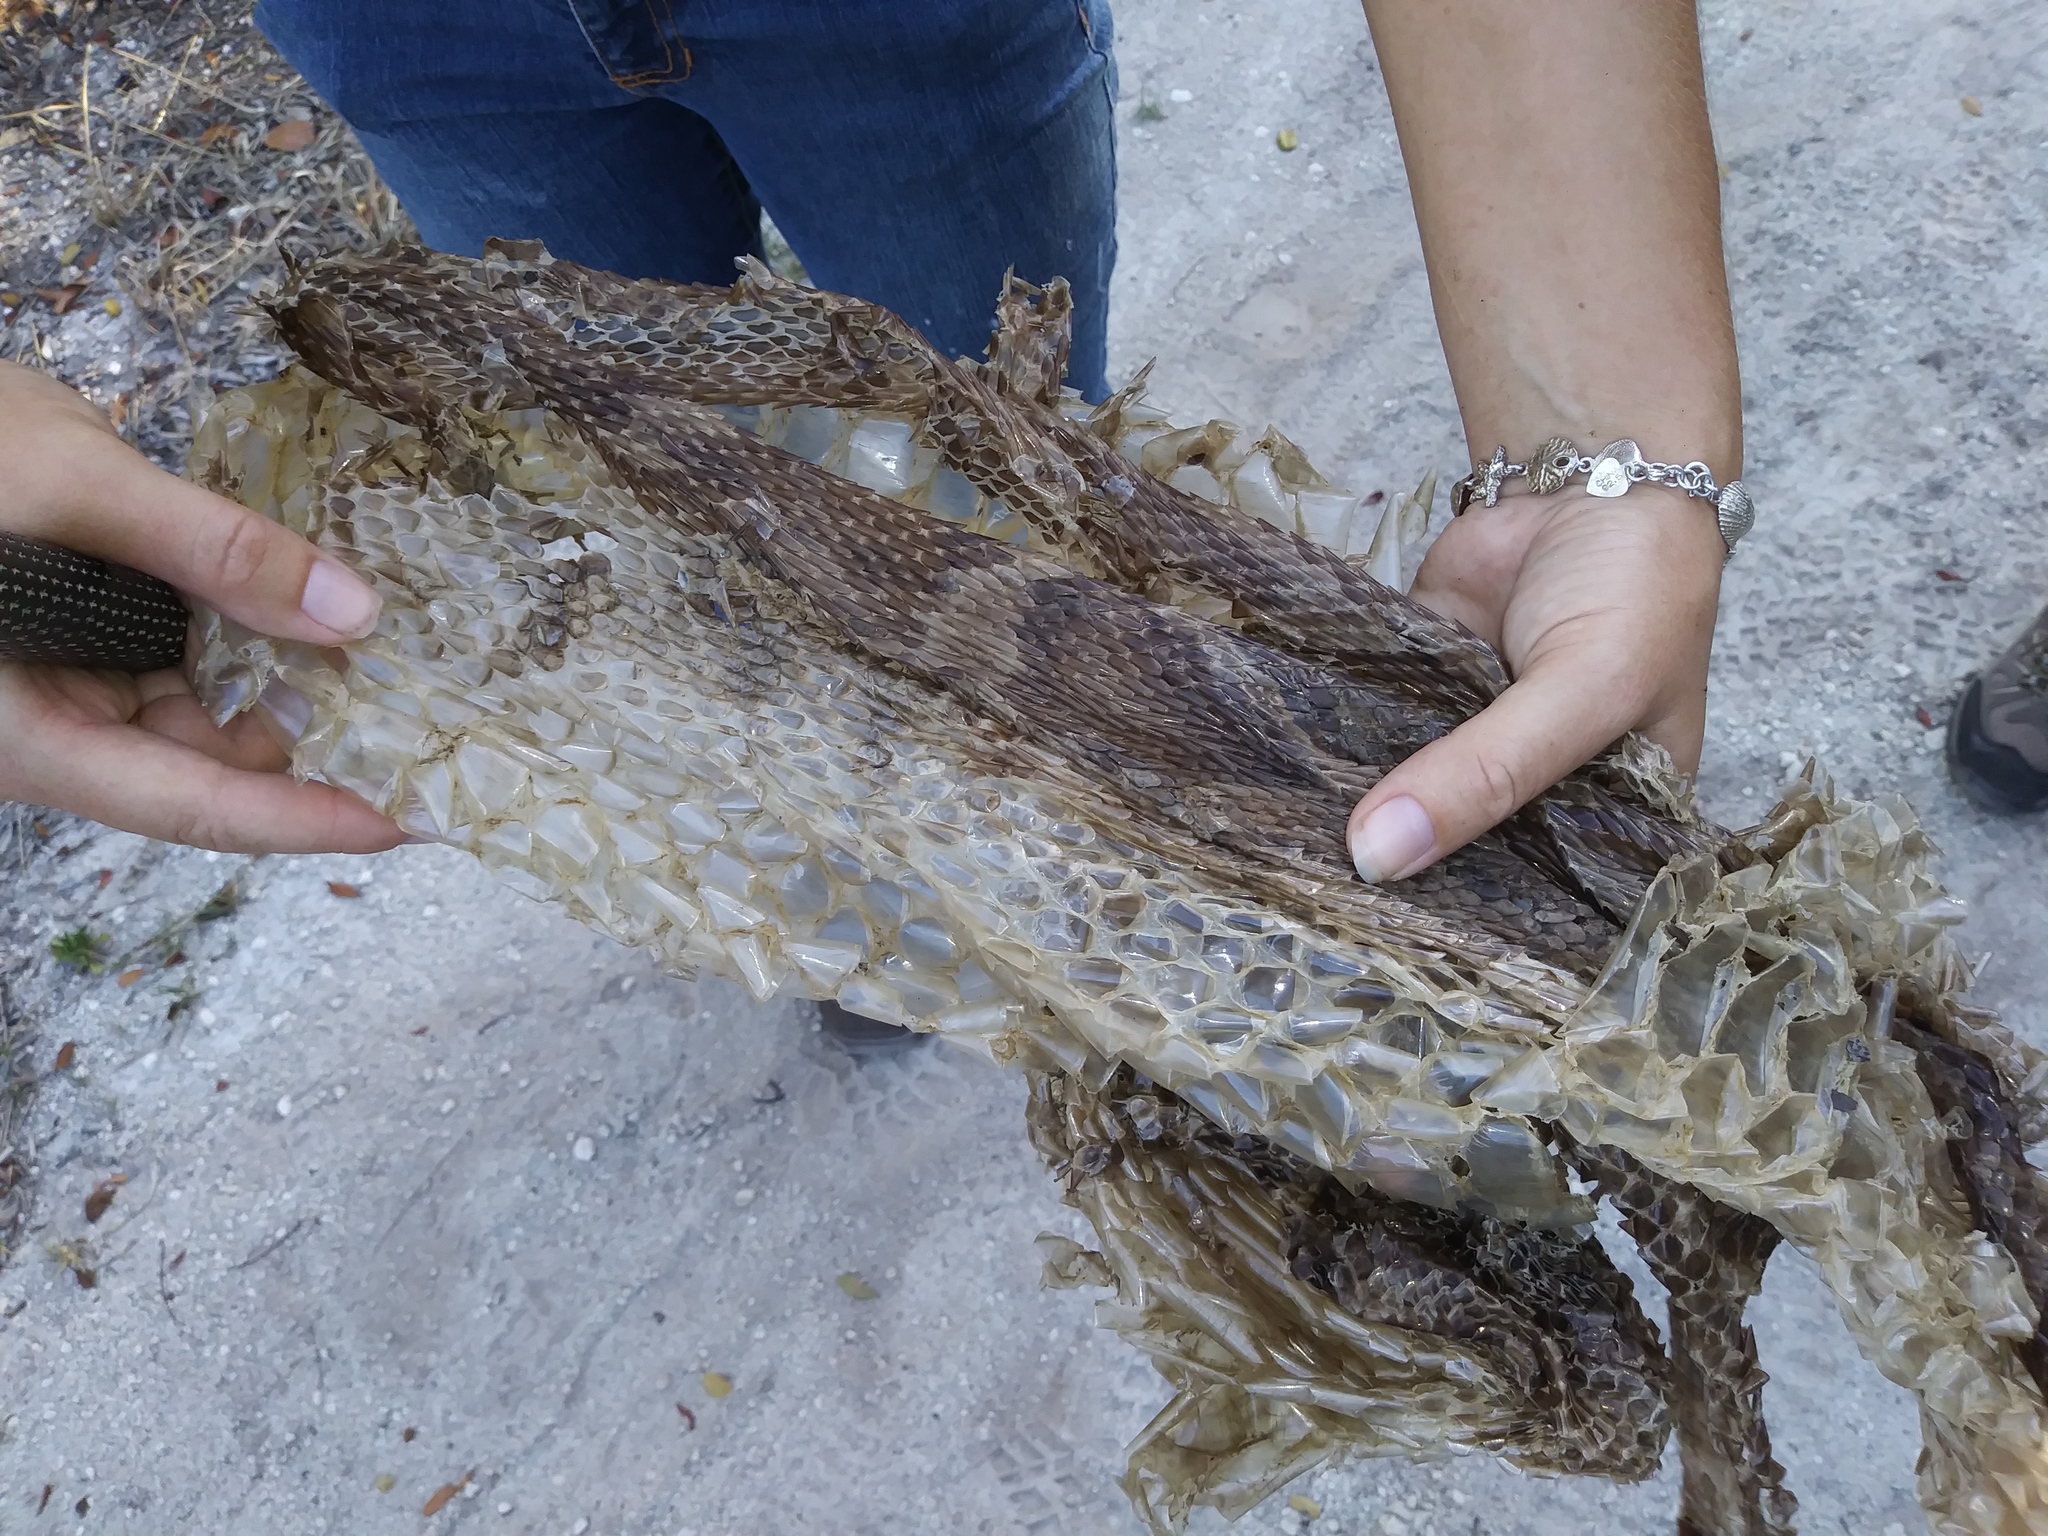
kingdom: Animalia
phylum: Chordata
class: Squamata
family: Pythonidae
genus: Python
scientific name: Python bivittatus
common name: Burmese python
